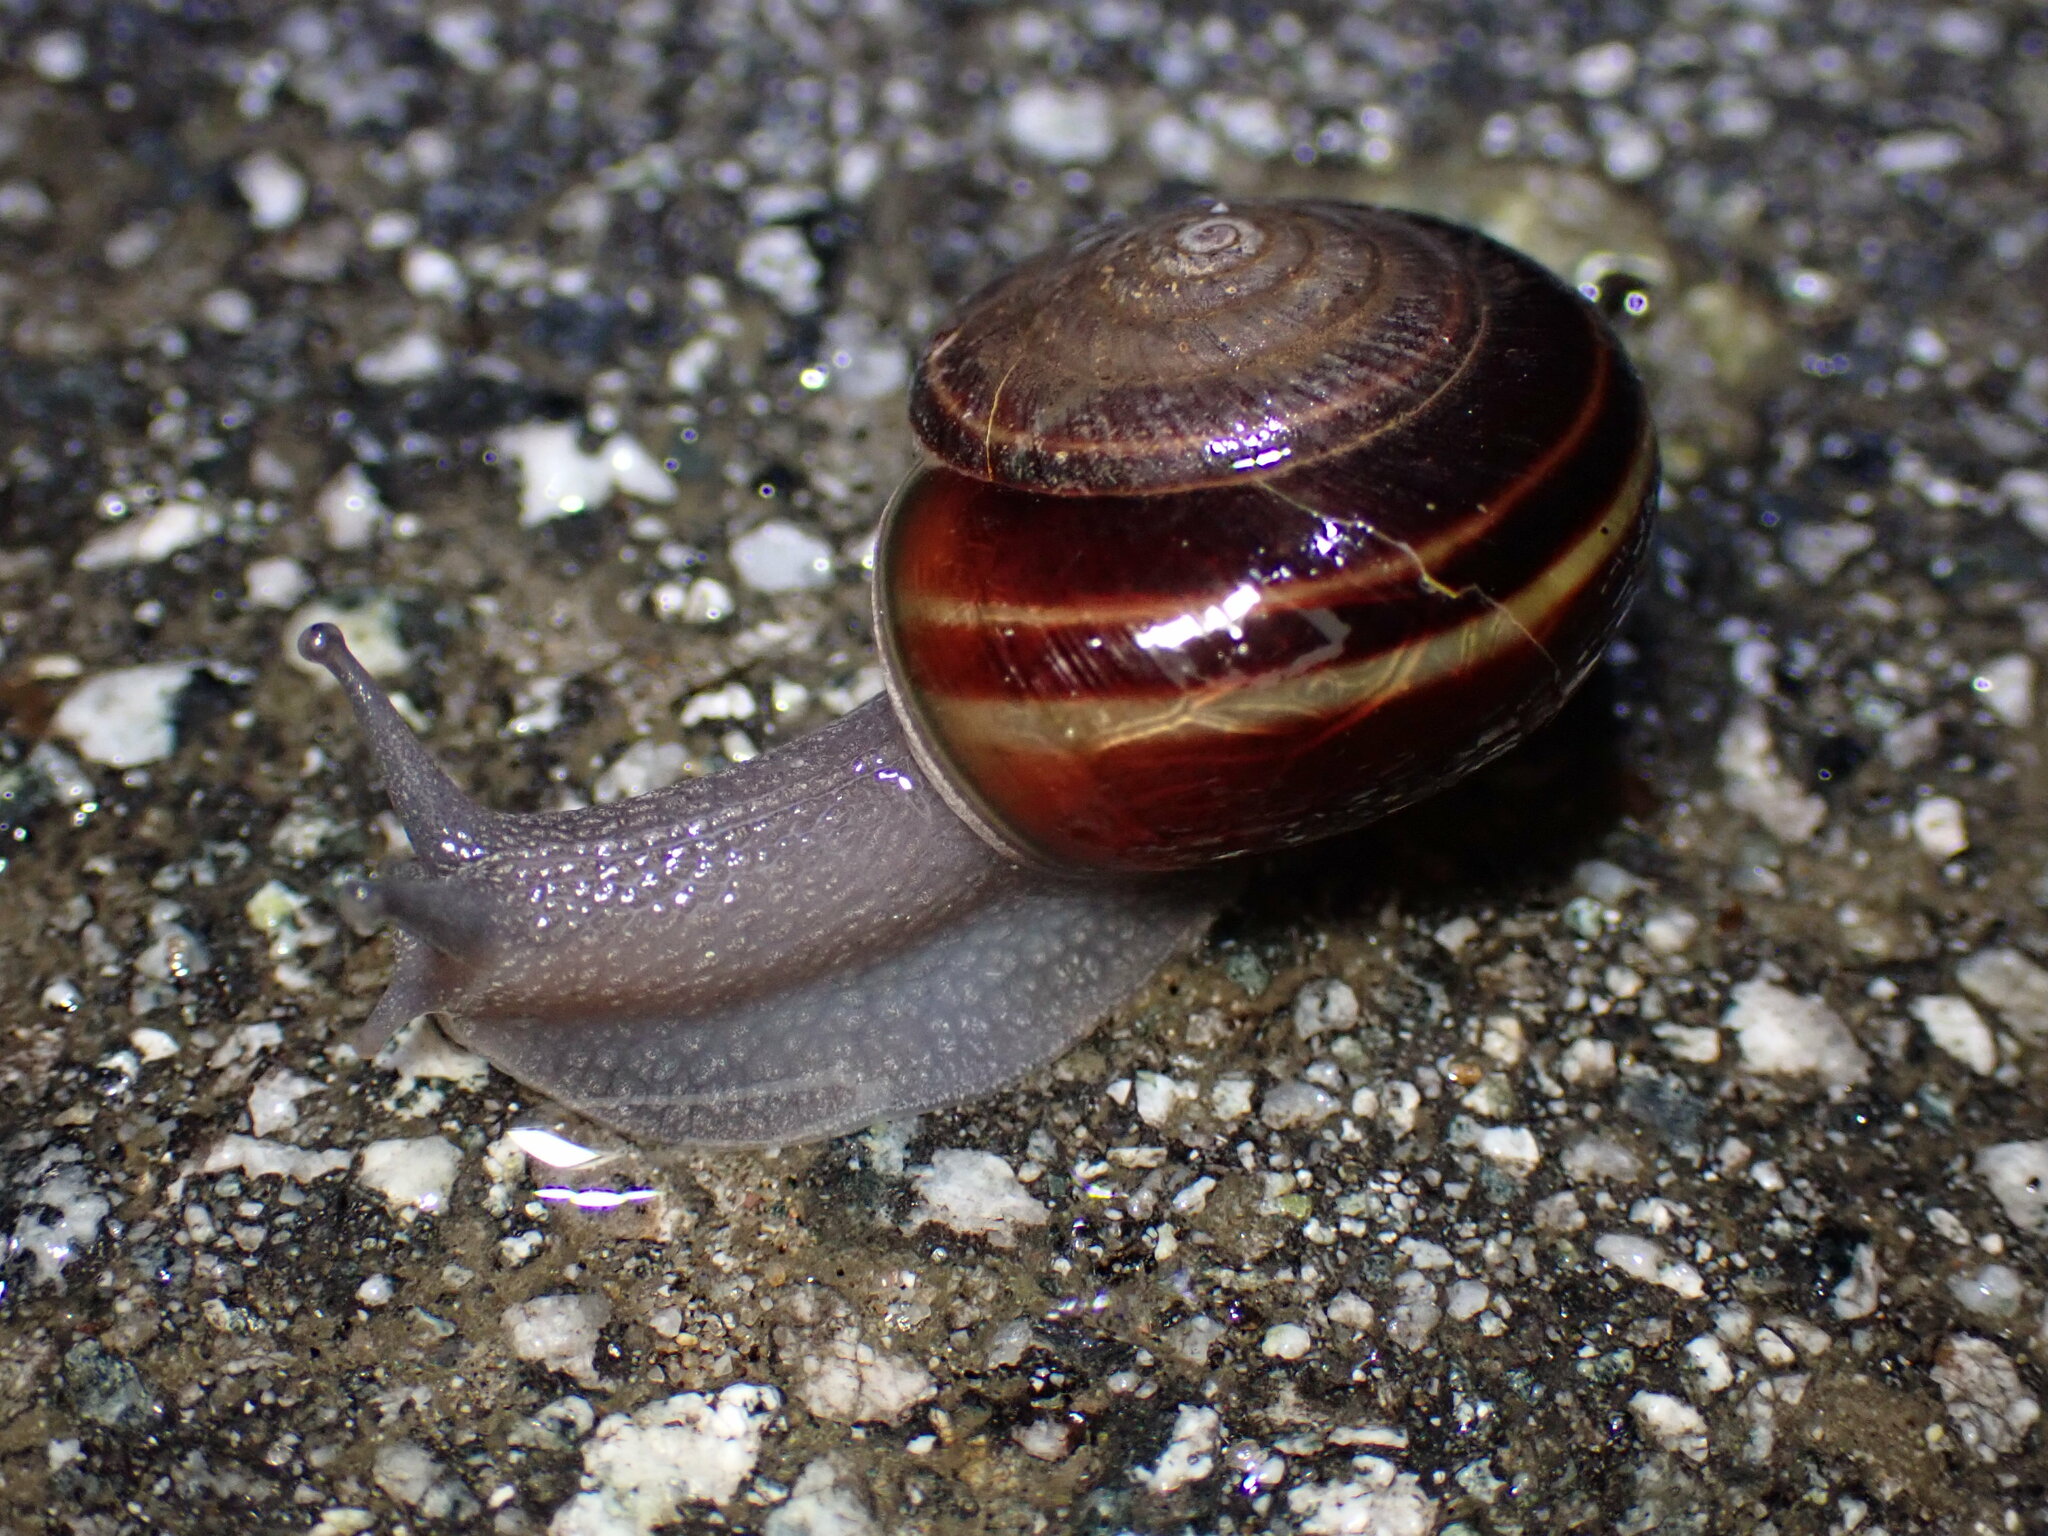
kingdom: Animalia
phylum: Mollusca
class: Gastropoda
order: Stylommatophora
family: Xanthonychidae
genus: Helminthoglypta
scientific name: Helminthoglypta sequoicola
